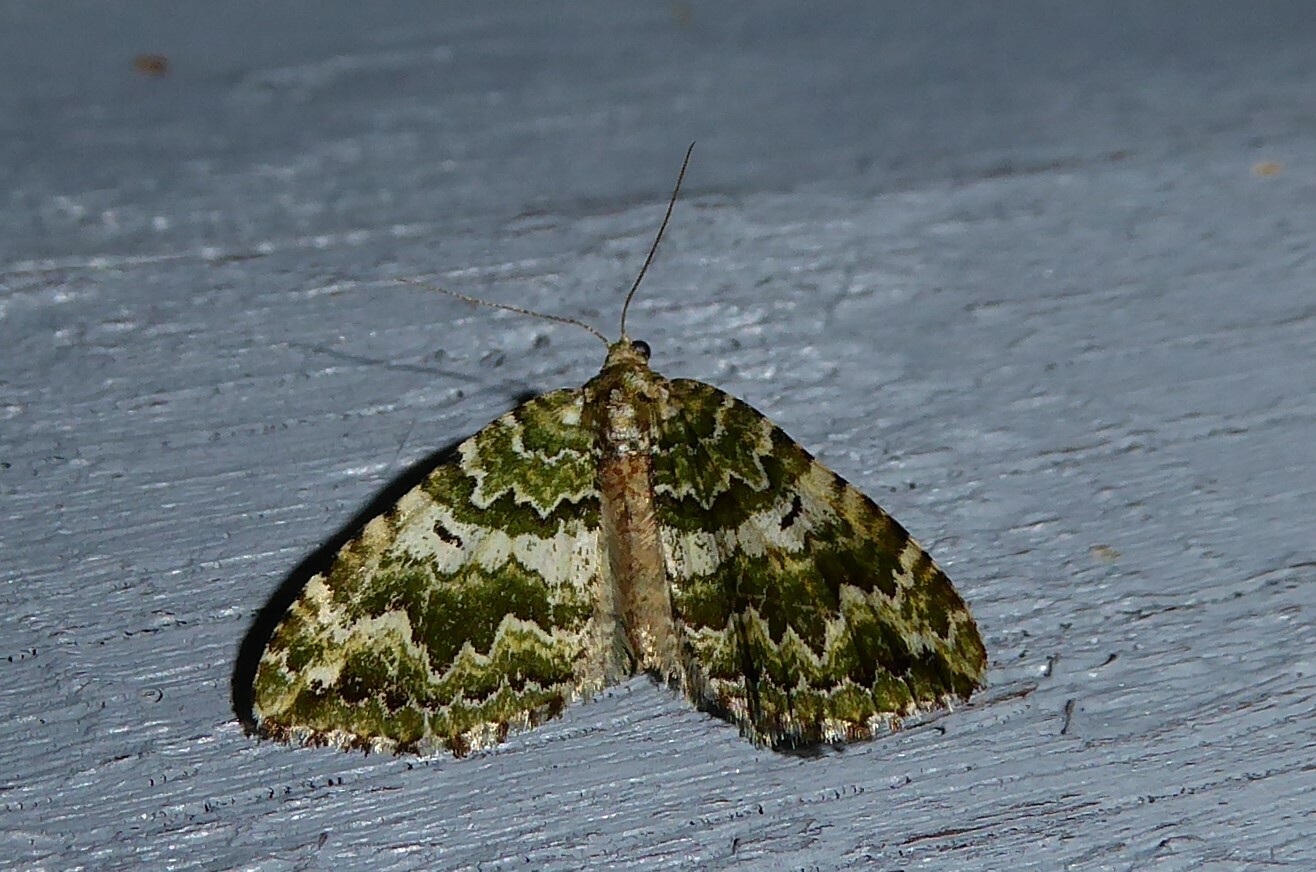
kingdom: Animalia
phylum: Arthropoda
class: Insecta
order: Lepidoptera
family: Geometridae
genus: Asaphodes
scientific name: Asaphodes beata
